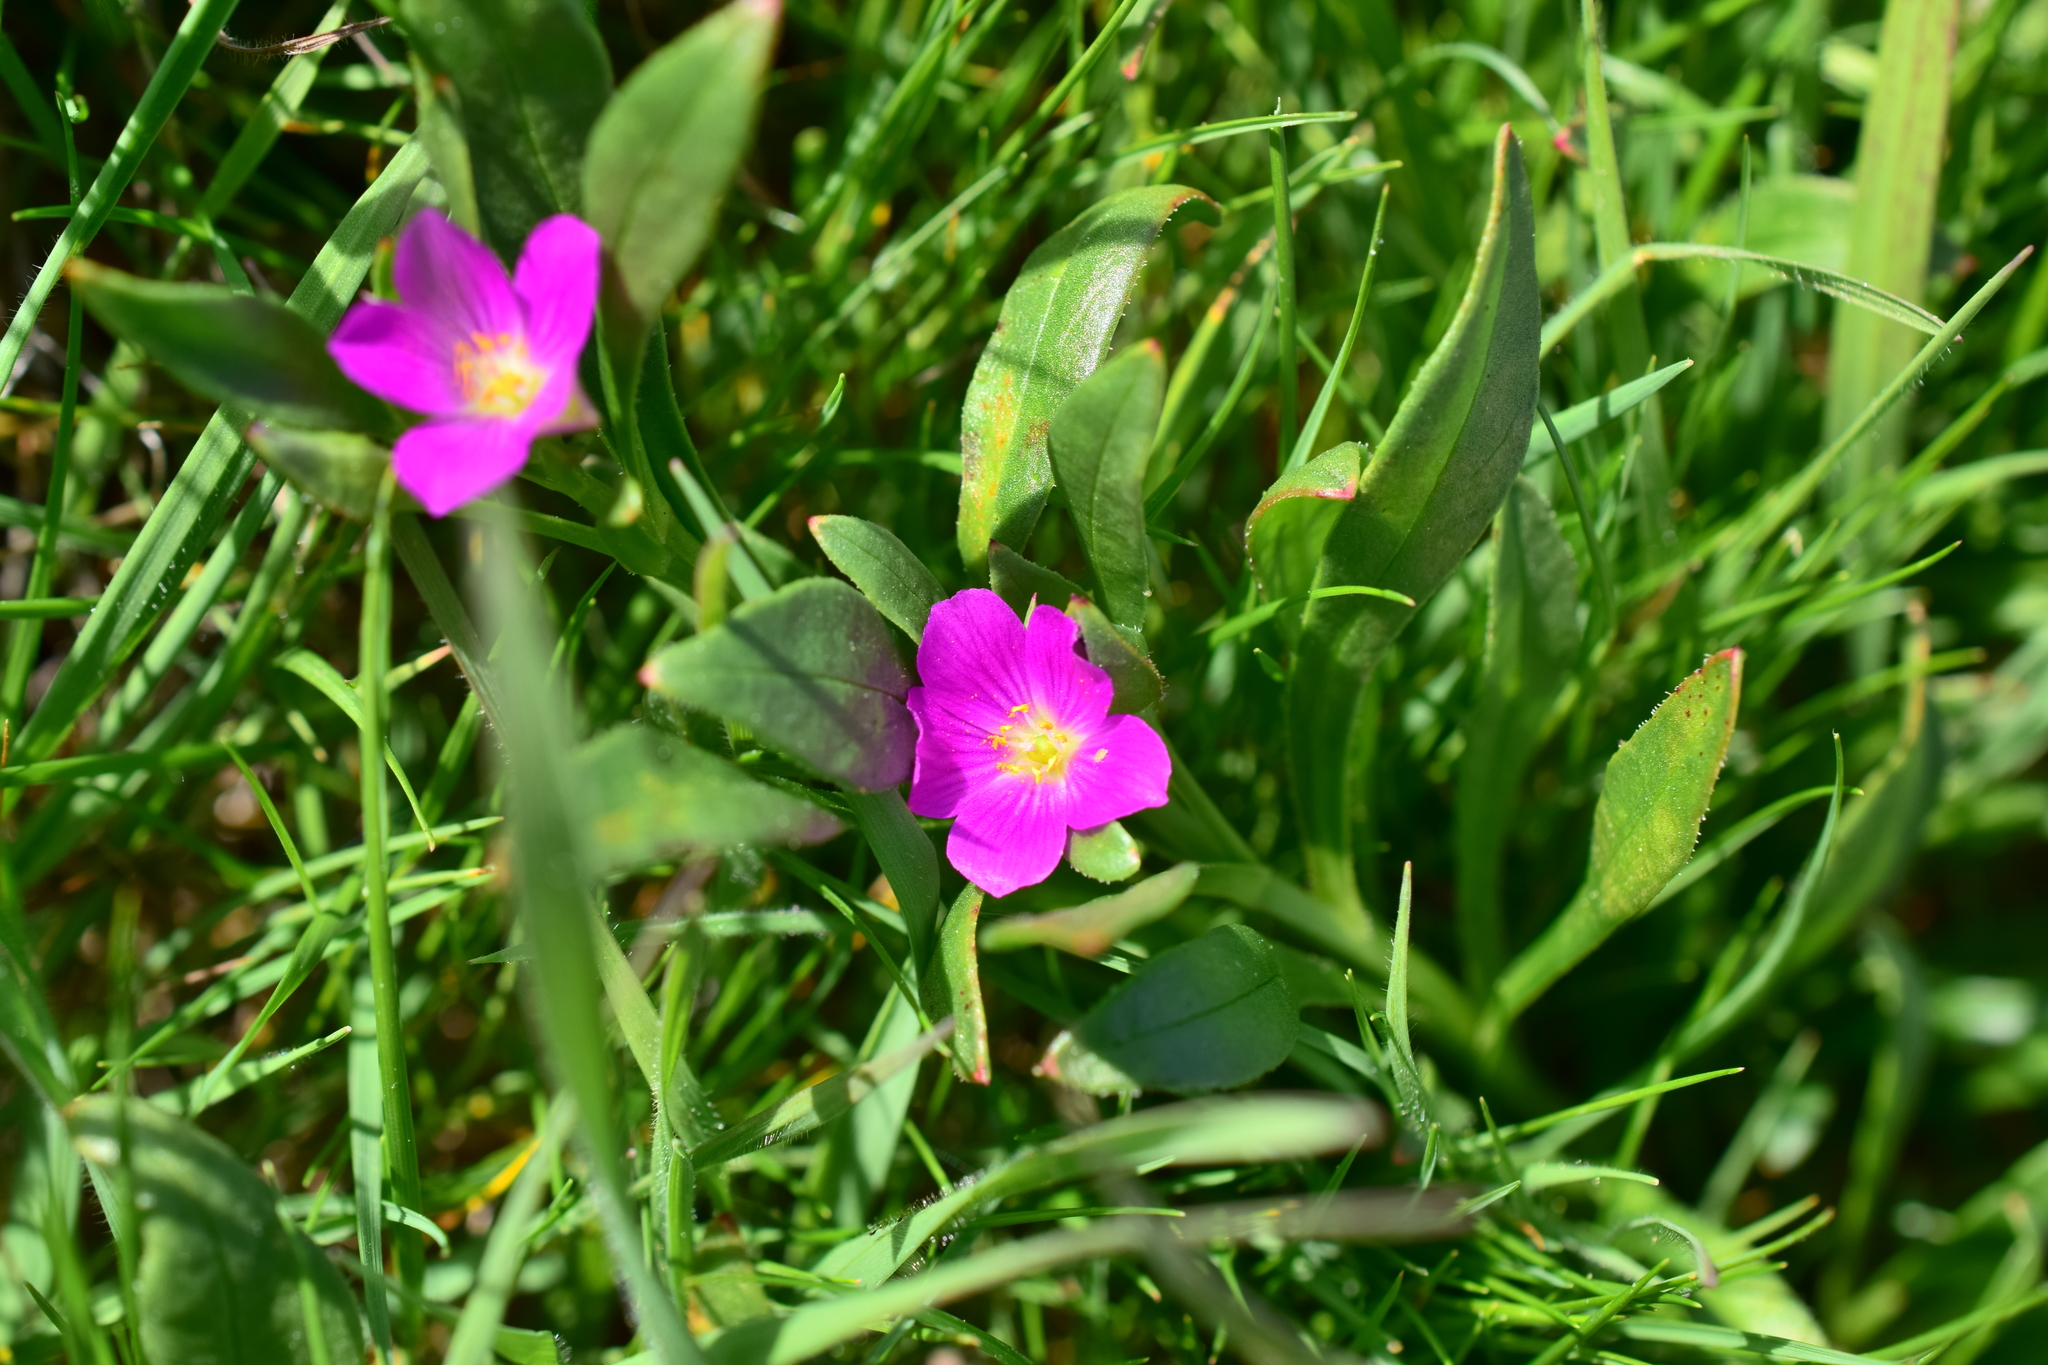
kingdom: Plantae
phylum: Tracheophyta
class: Magnoliopsida
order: Caryophyllales
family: Montiaceae
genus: Calandrinia
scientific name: Calandrinia menziesii
